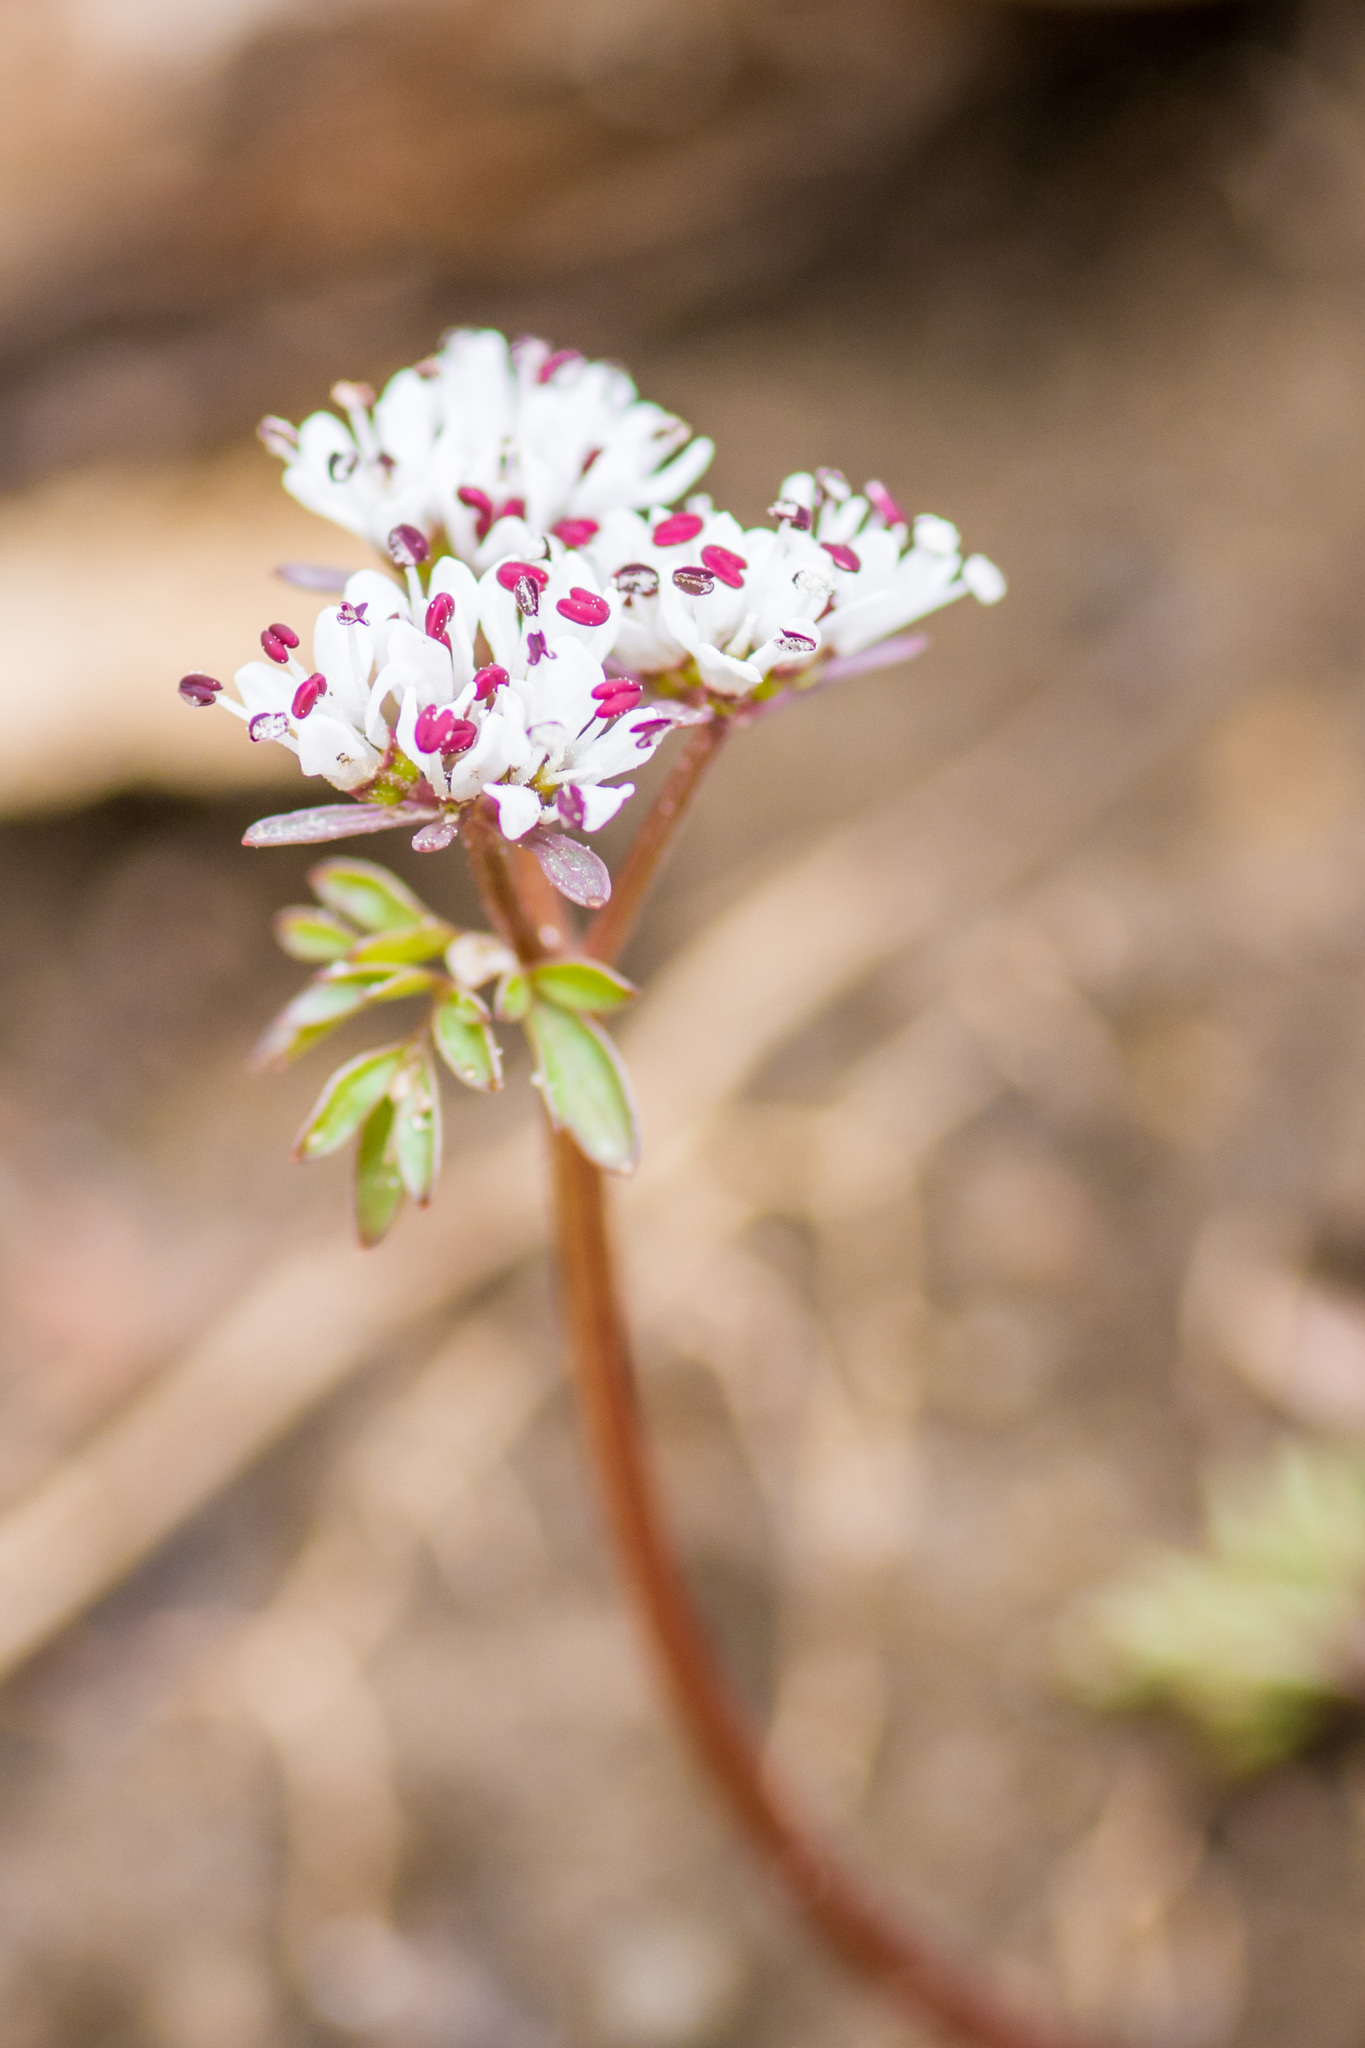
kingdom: Plantae
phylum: Tracheophyta
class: Magnoliopsida
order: Apiales
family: Apiaceae
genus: Erigenia
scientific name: Erigenia bulbosa
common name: Pepper-and-salt
